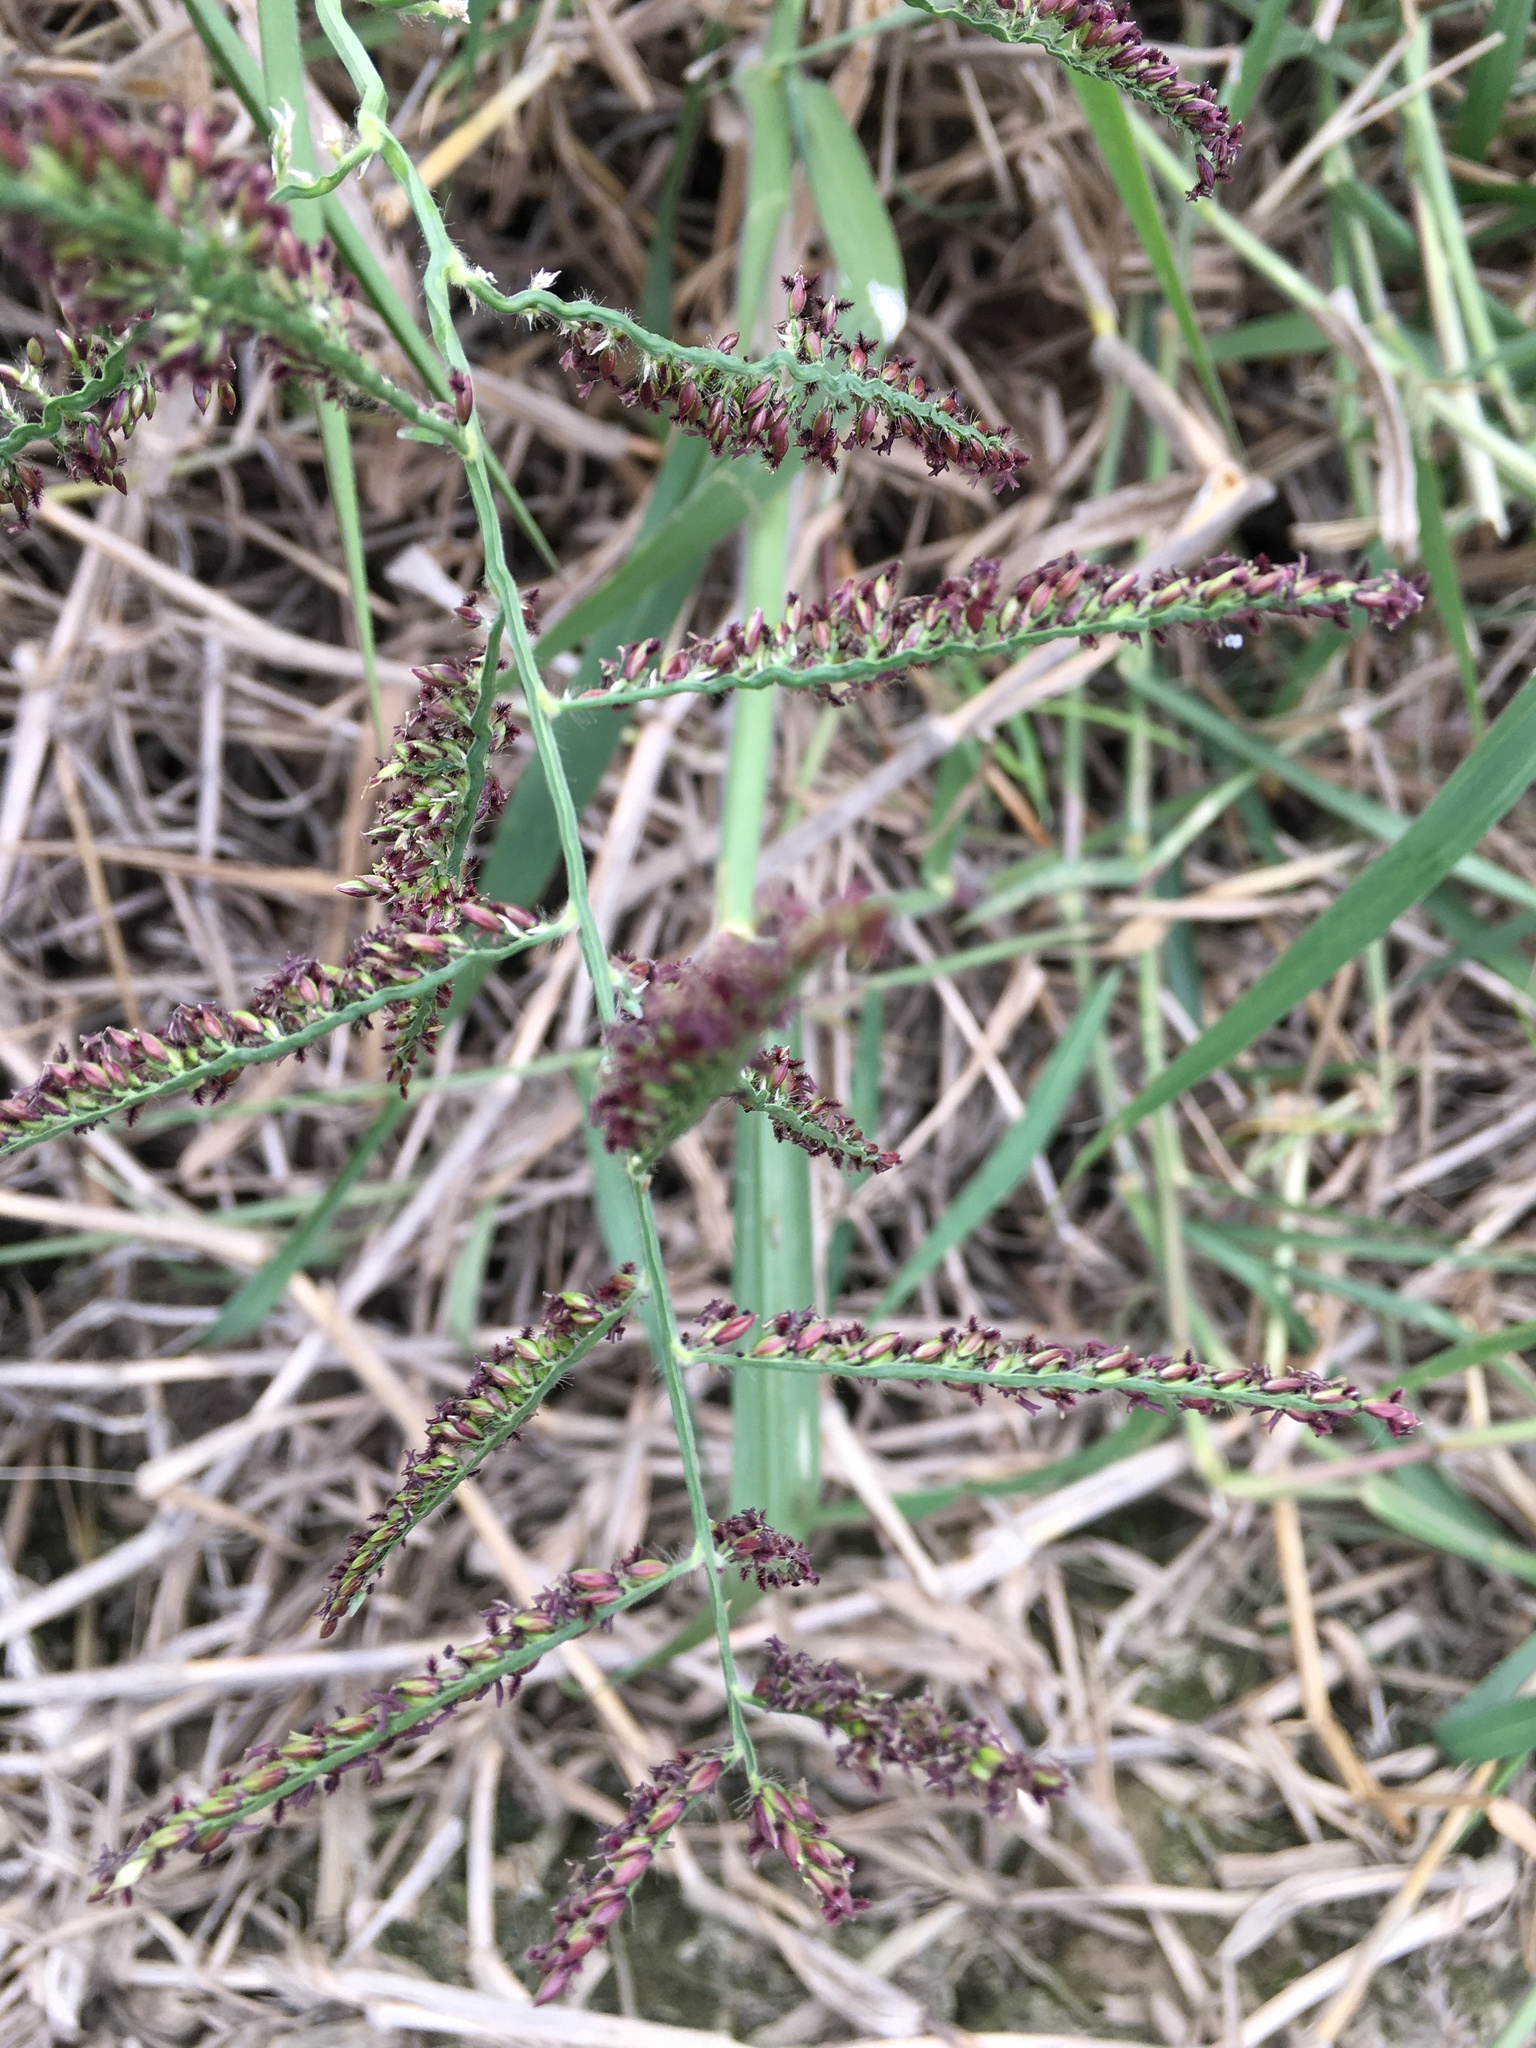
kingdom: Plantae
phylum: Tracheophyta
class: Liliopsida
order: Poales
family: Poaceae
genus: Urochloa
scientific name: Urochloa mutica
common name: Para grass
